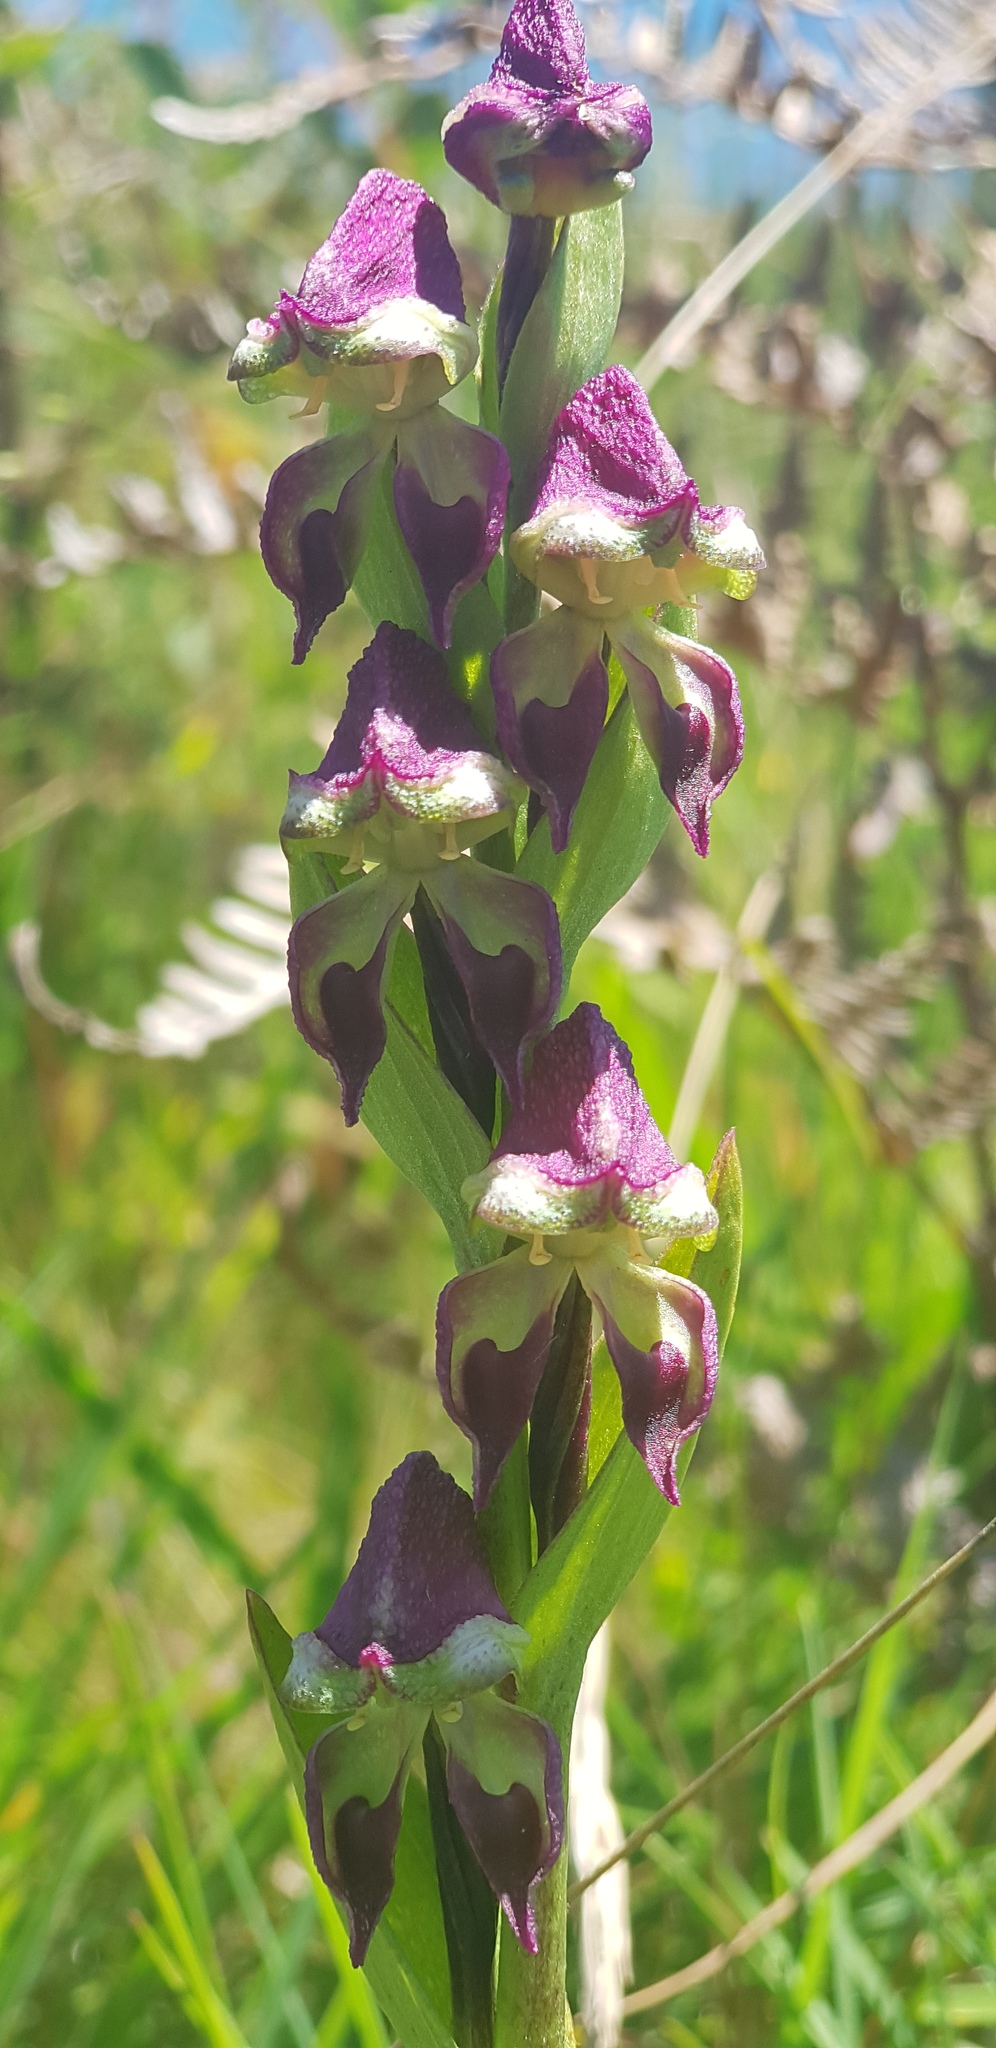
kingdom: Plantae
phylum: Tracheophyta
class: Liliopsida
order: Asparagales
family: Orchidaceae
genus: Disperis
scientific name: Disperis stenoplectron
